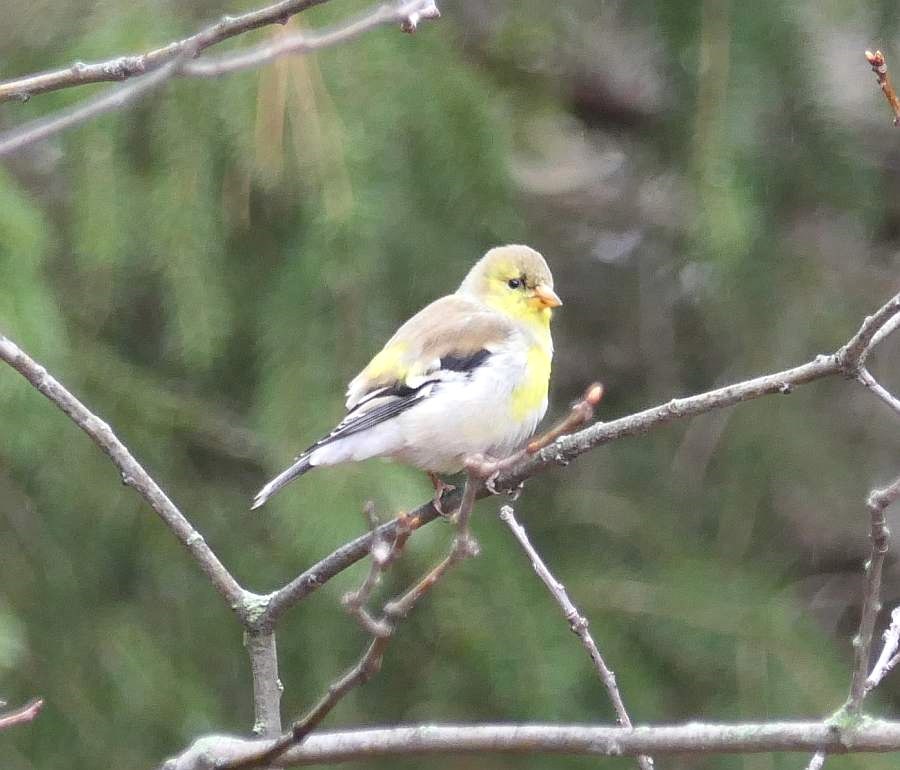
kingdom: Animalia
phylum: Chordata
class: Aves
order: Passeriformes
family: Fringillidae
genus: Spinus
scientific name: Spinus tristis
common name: American goldfinch
